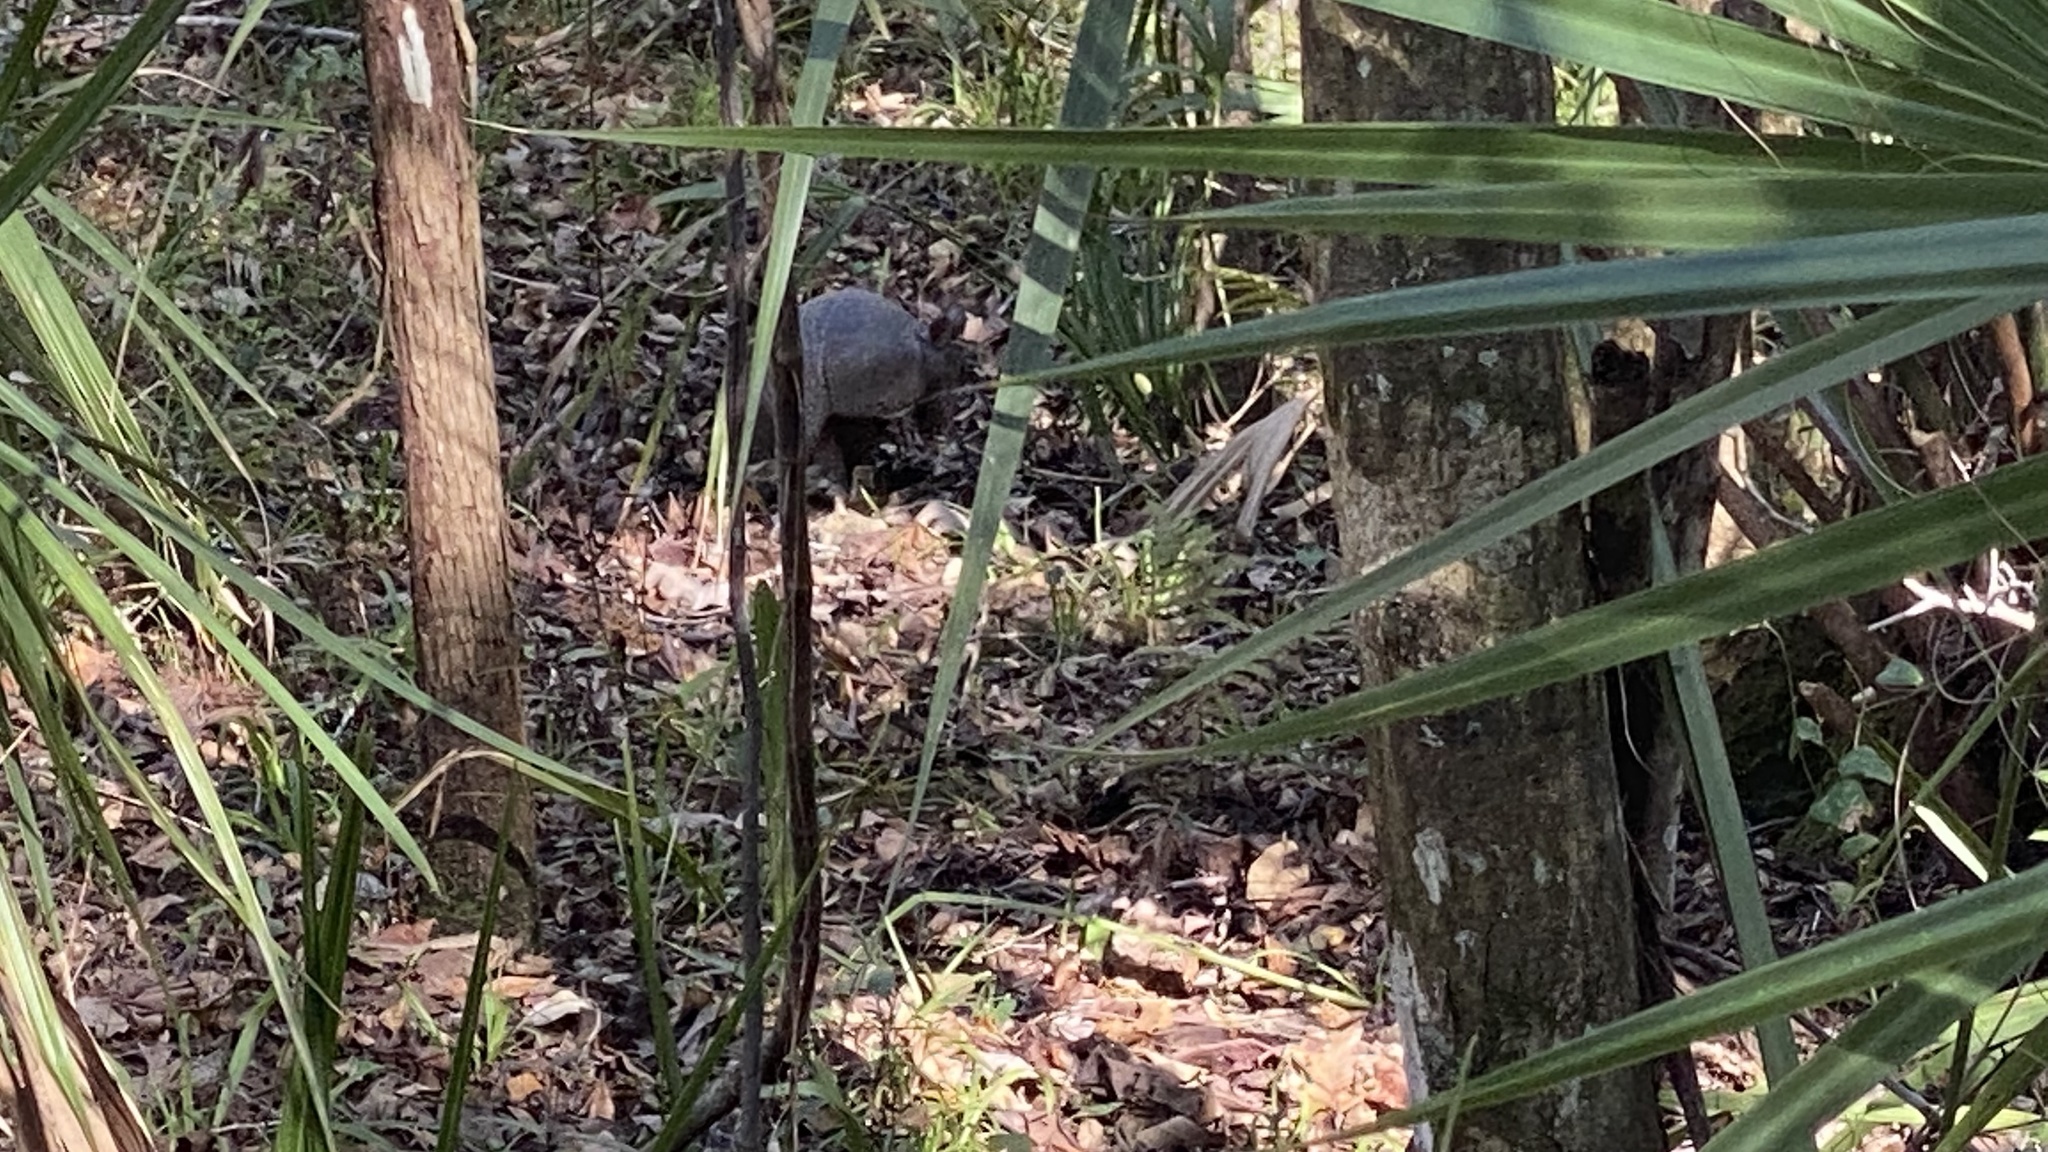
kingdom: Animalia
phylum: Chordata
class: Mammalia
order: Cingulata
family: Dasypodidae
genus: Dasypus
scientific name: Dasypus novemcinctus
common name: Nine-banded armadillo
